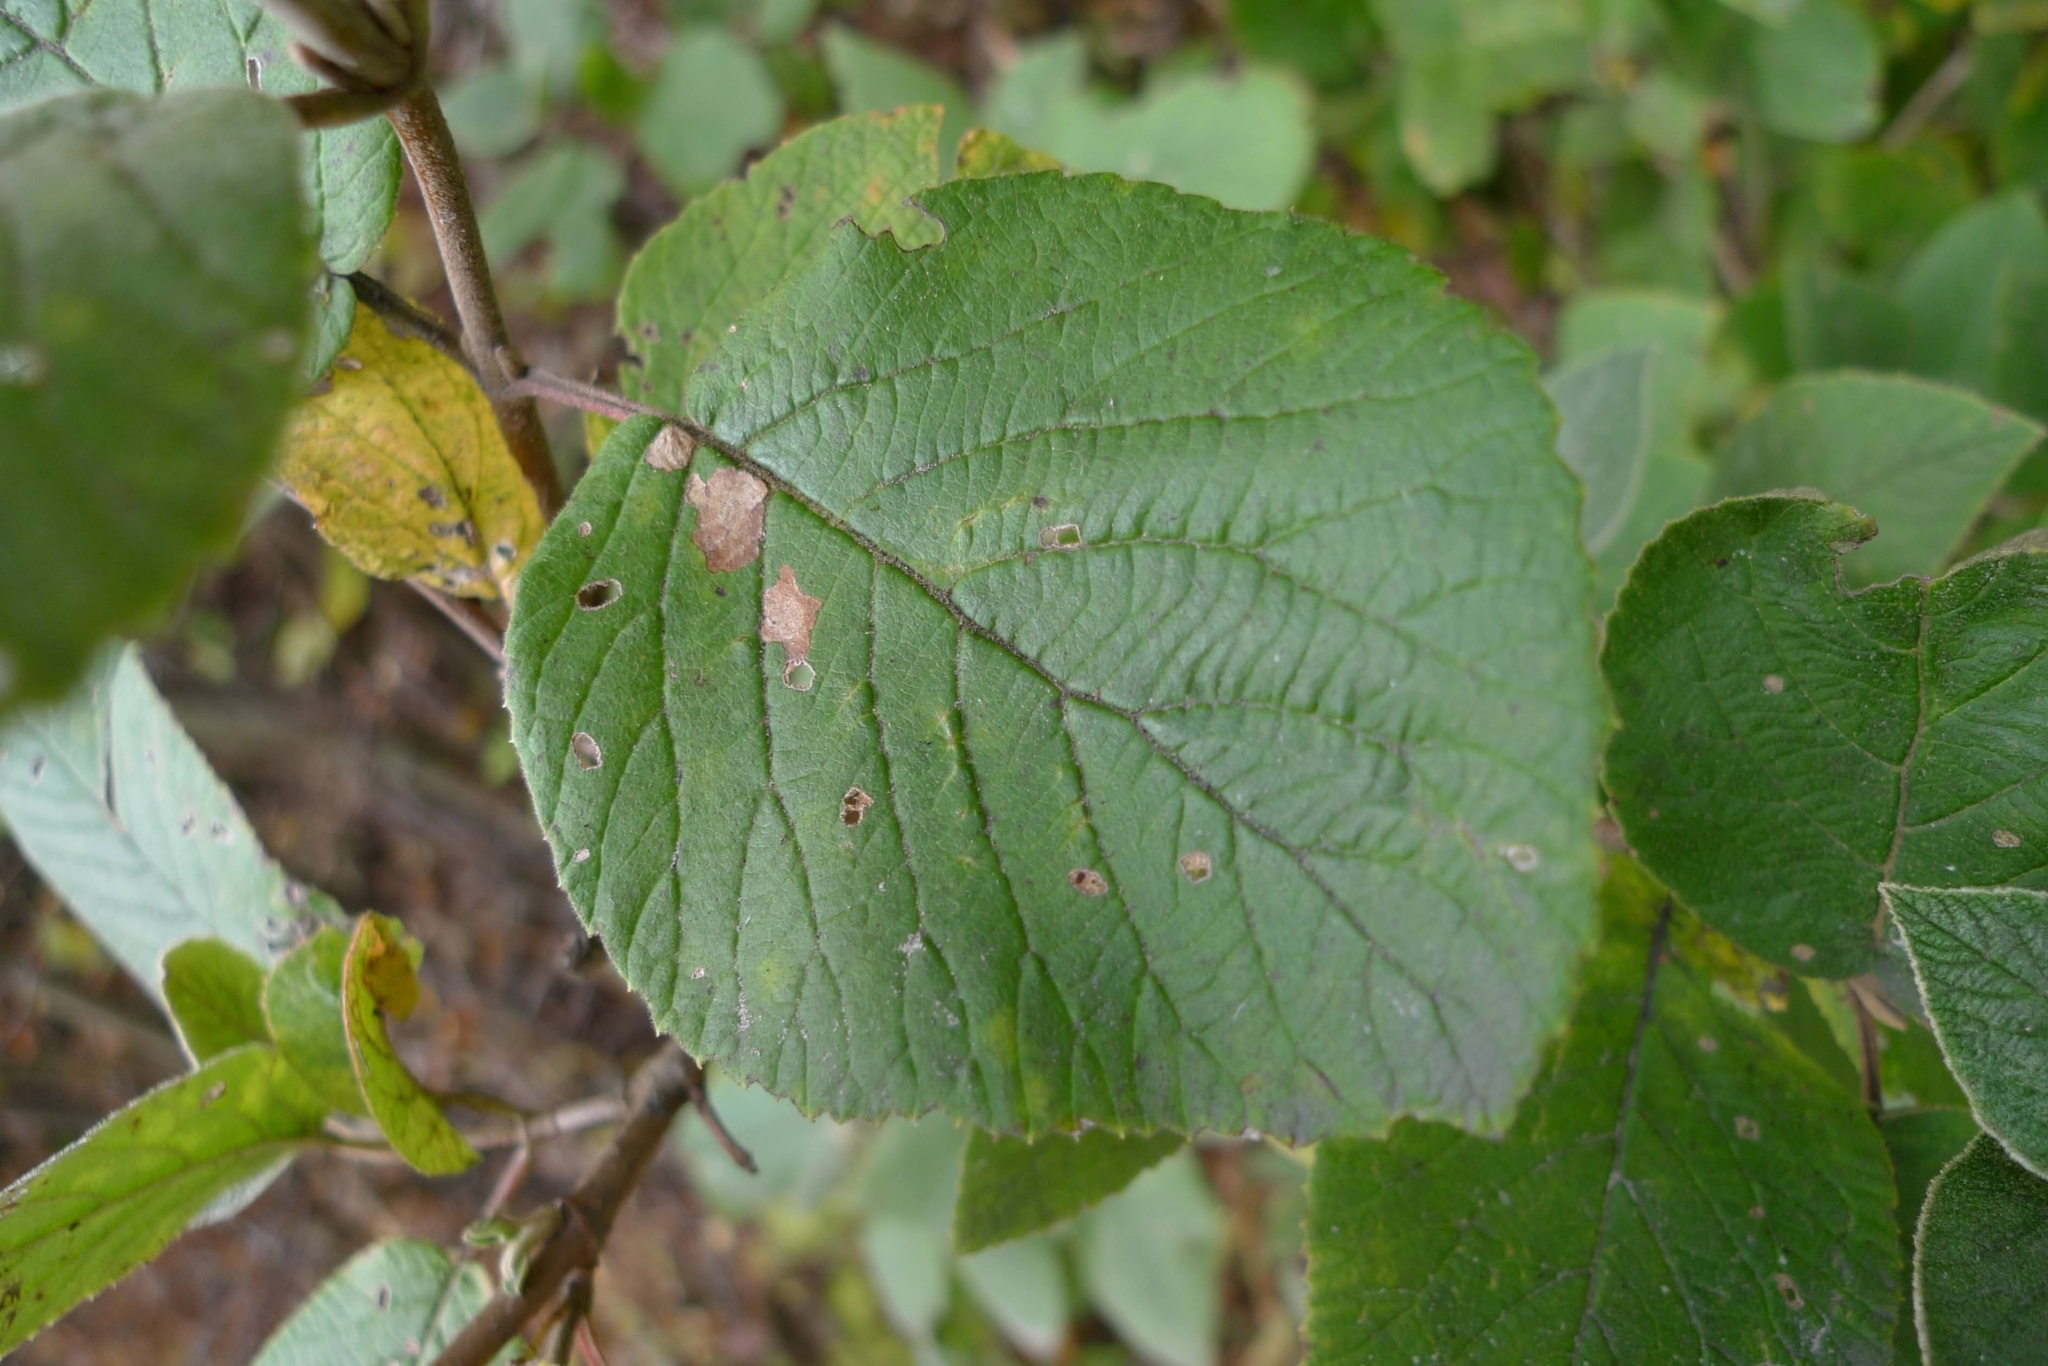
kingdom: Plantae
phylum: Tracheophyta
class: Magnoliopsida
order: Dipsacales
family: Viburnaceae
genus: Viburnum
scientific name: Viburnum lantana
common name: Wayfaring tree
